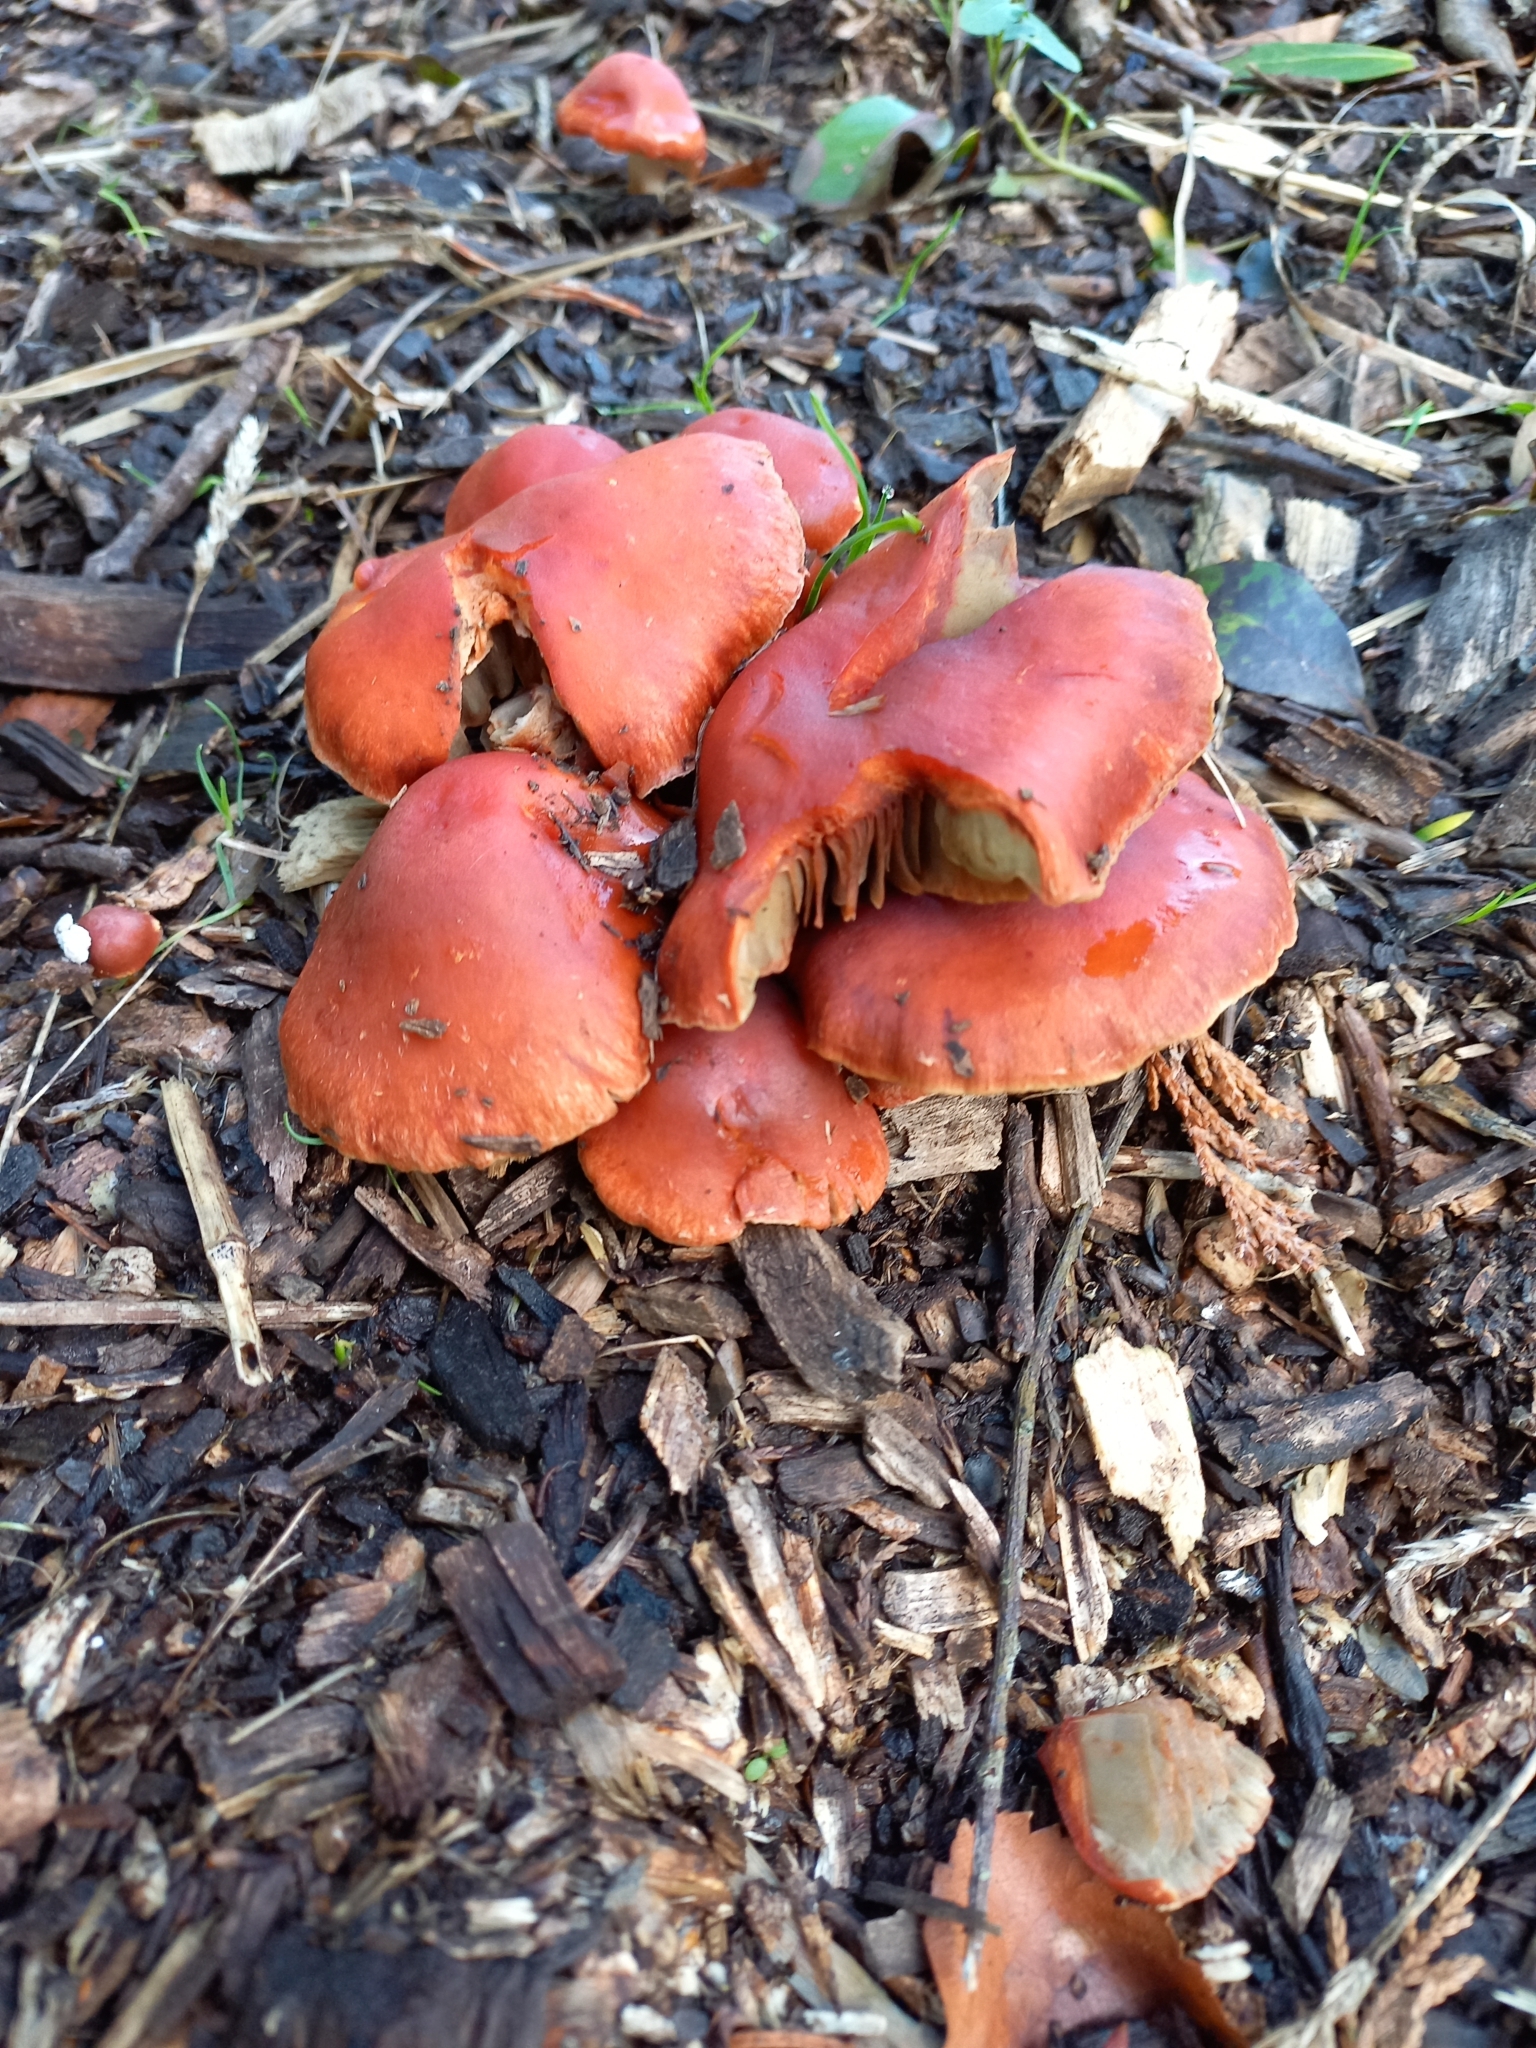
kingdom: Fungi
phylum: Basidiomycota
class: Agaricomycetes
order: Agaricales
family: Strophariaceae
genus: Leratiomyces
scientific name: Leratiomyces ceres
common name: Redlead roundhead
